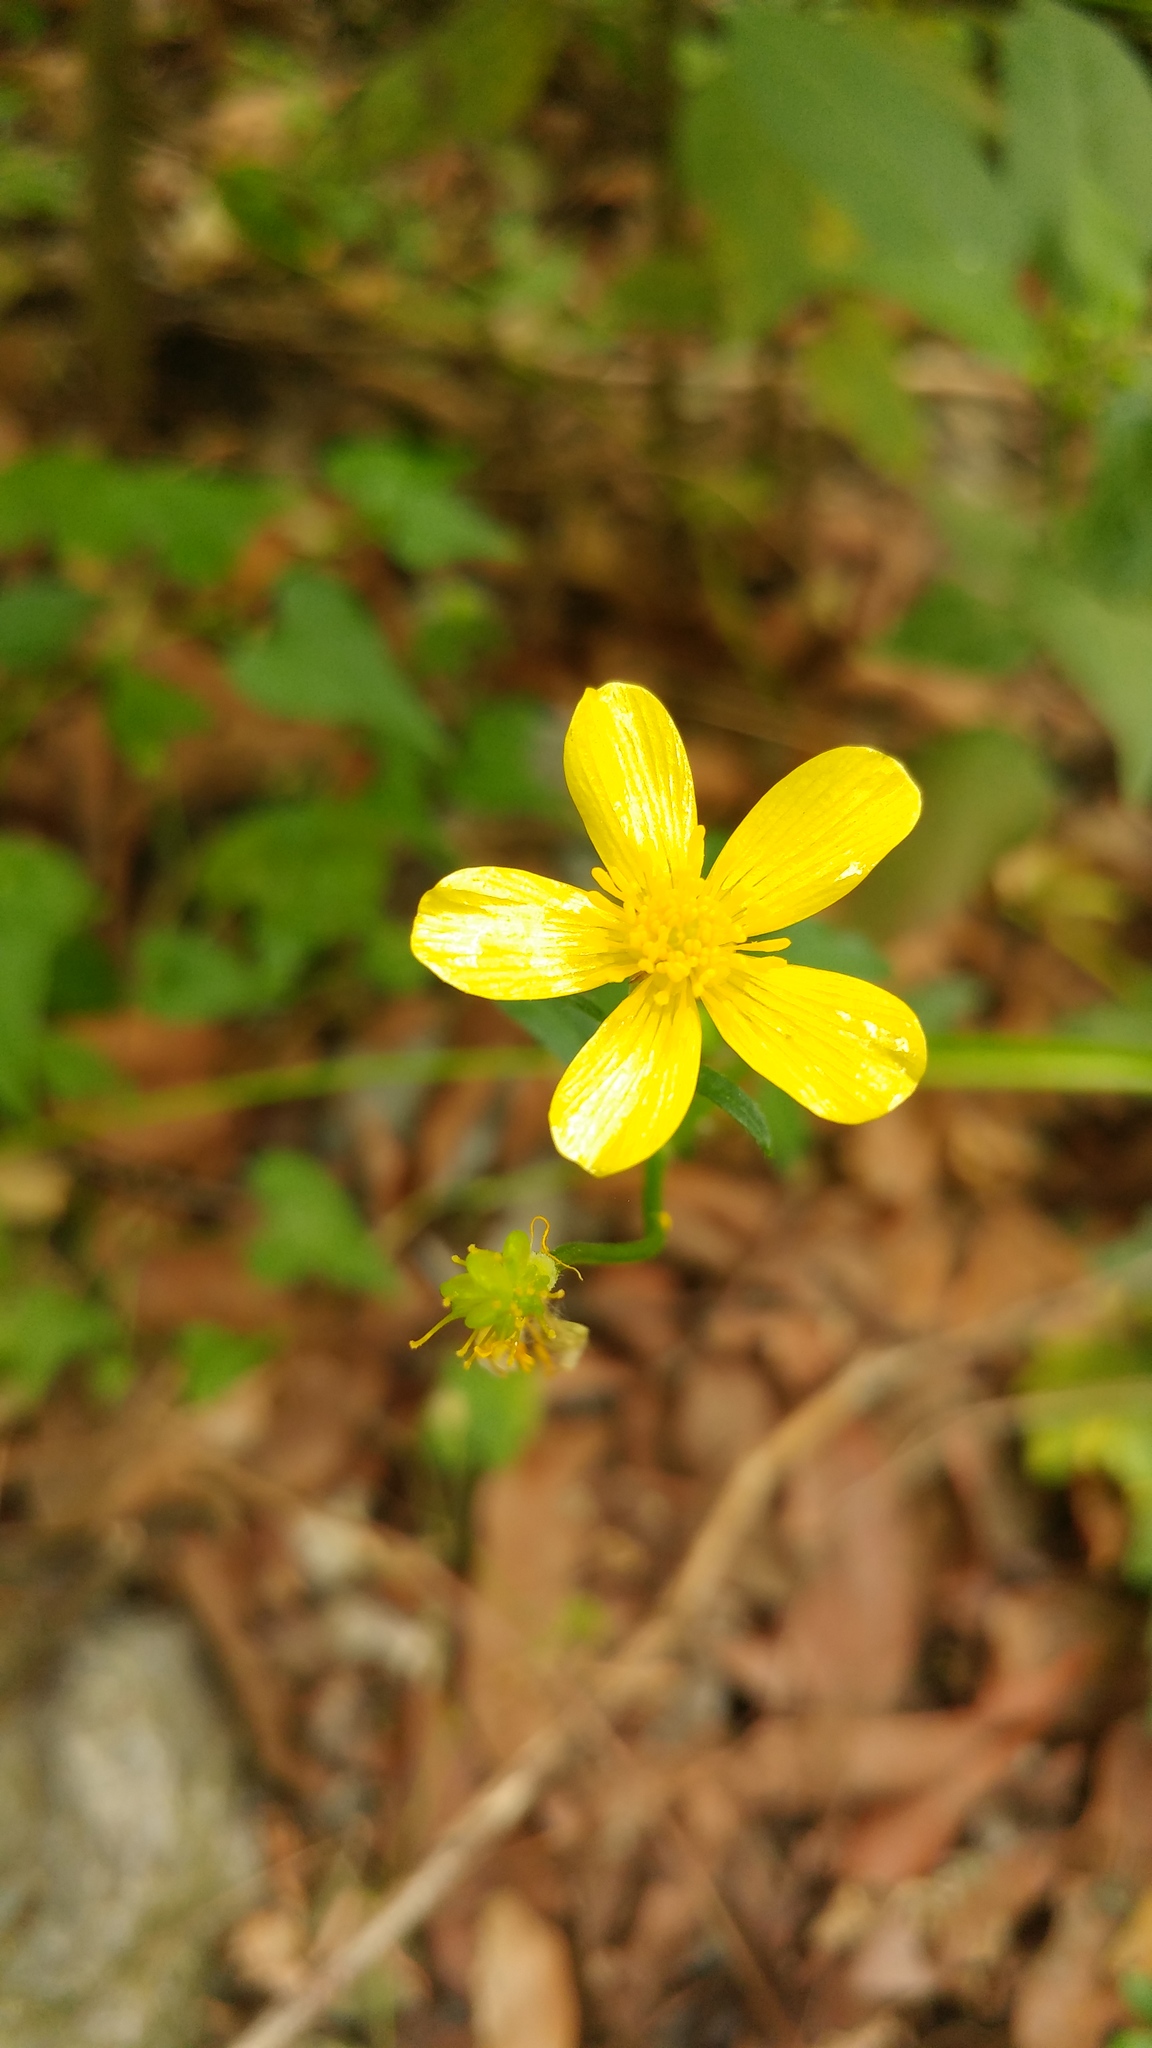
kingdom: Plantae
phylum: Tracheophyta
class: Magnoliopsida
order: Ranunculales
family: Ranunculaceae
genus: Ranunculus
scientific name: Ranunculus sierrae-orientalis
